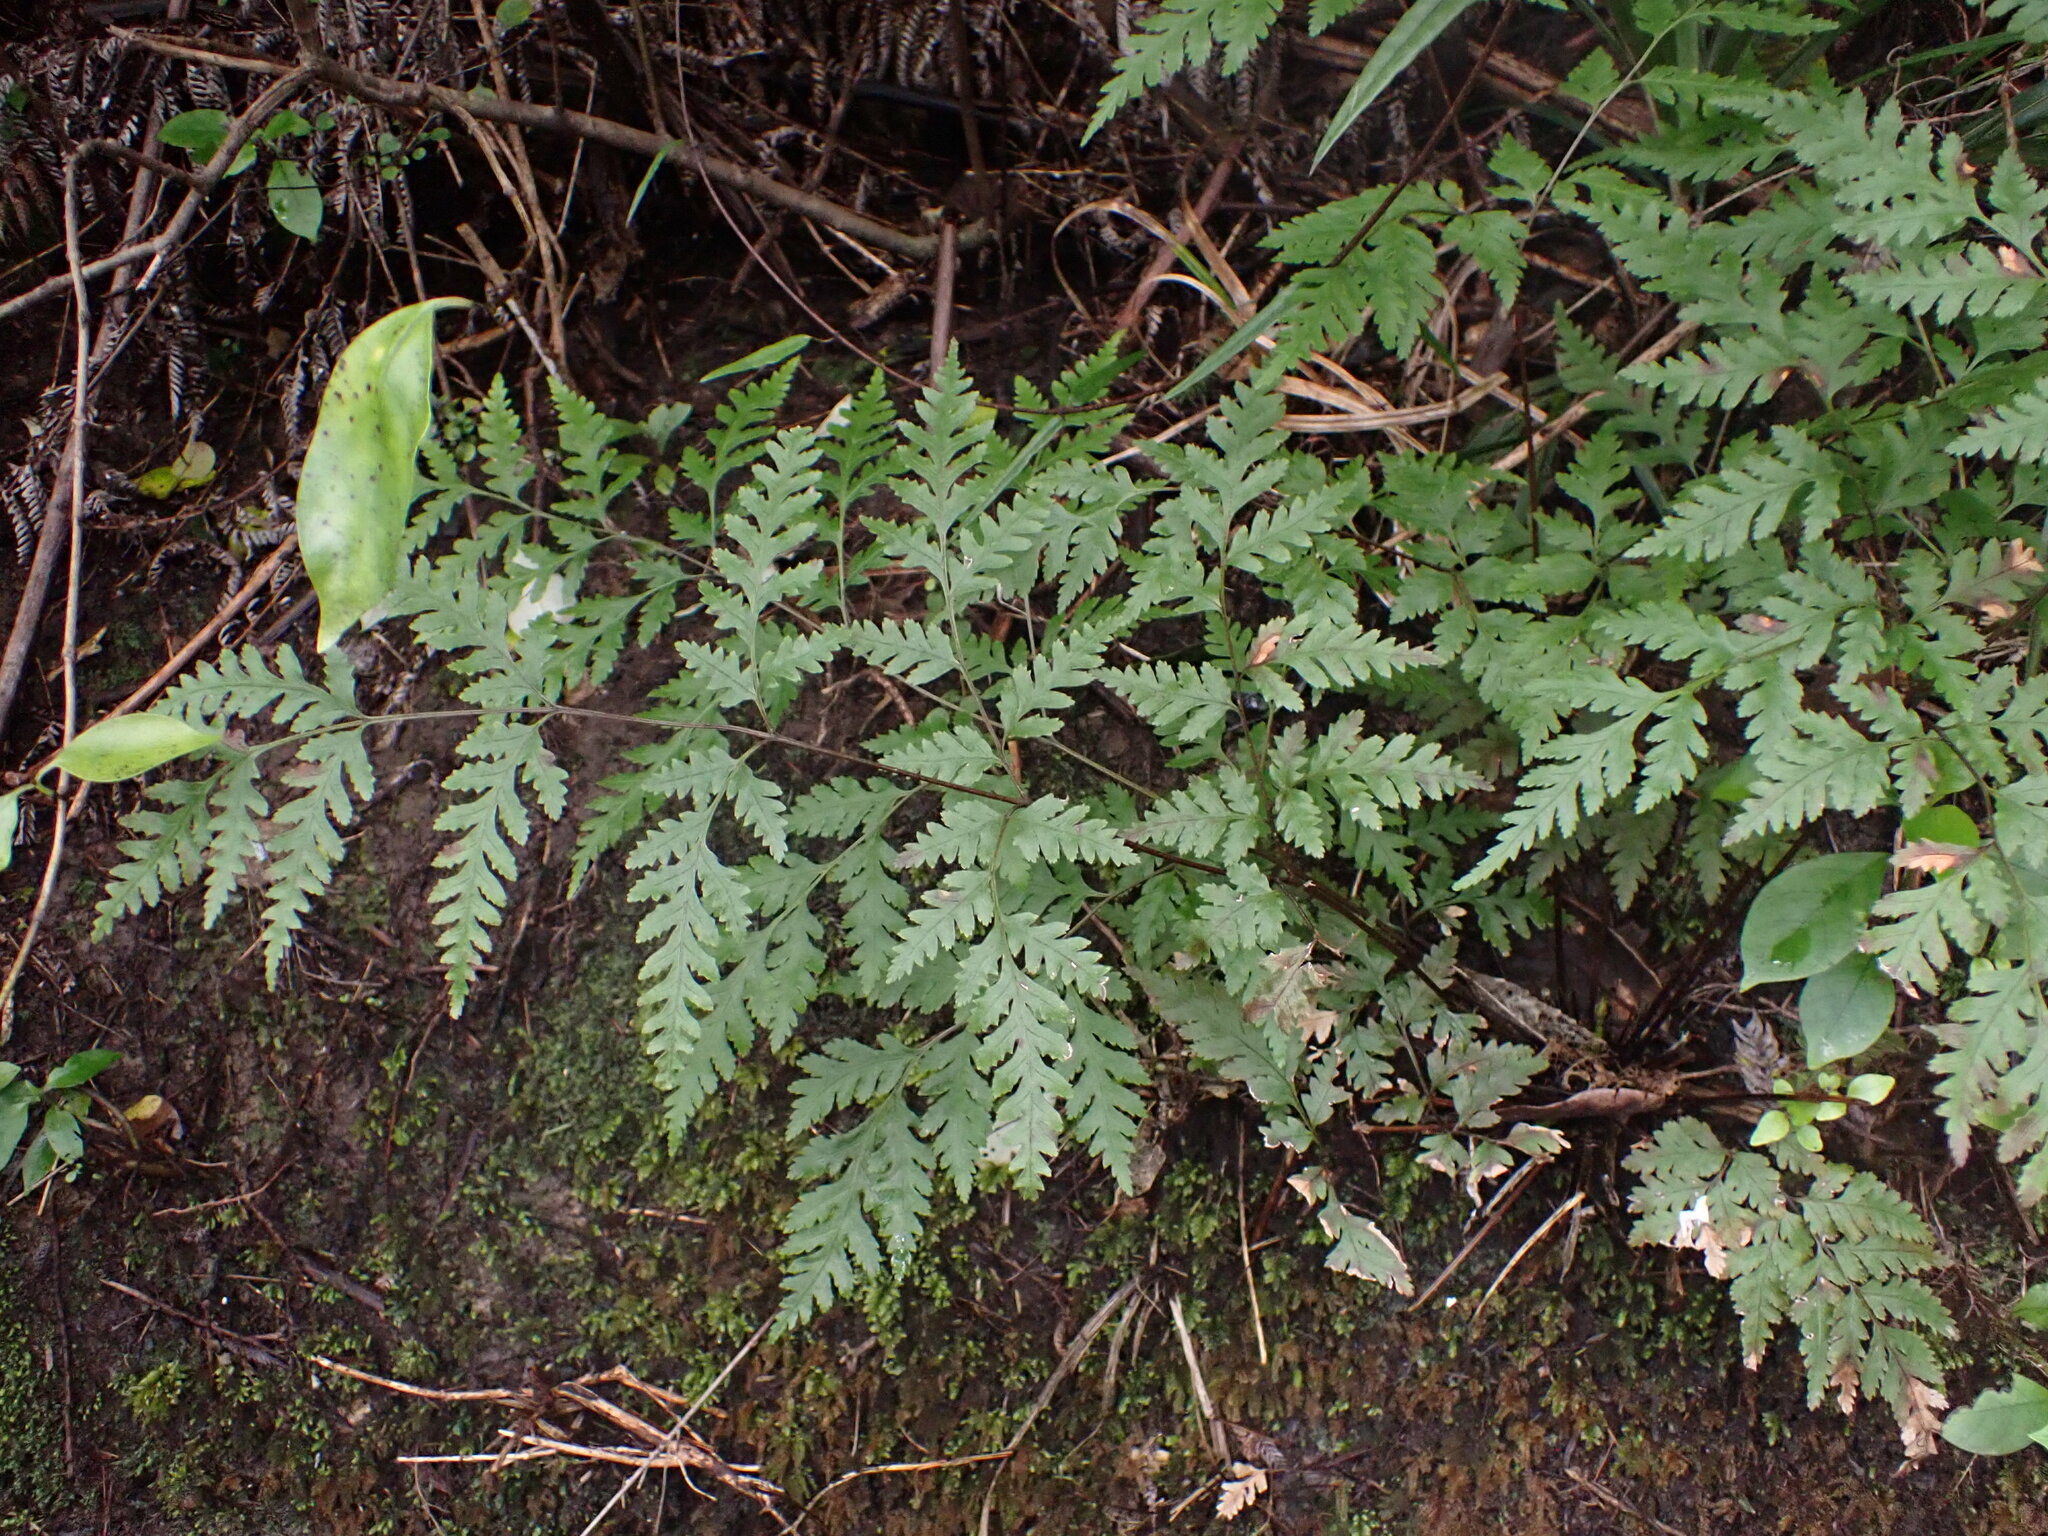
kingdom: Plantae
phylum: Tracheophyta
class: Polypodiopsida
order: Polypodiales
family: Pteridaceae
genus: Pteris
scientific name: Pteris macilenta
